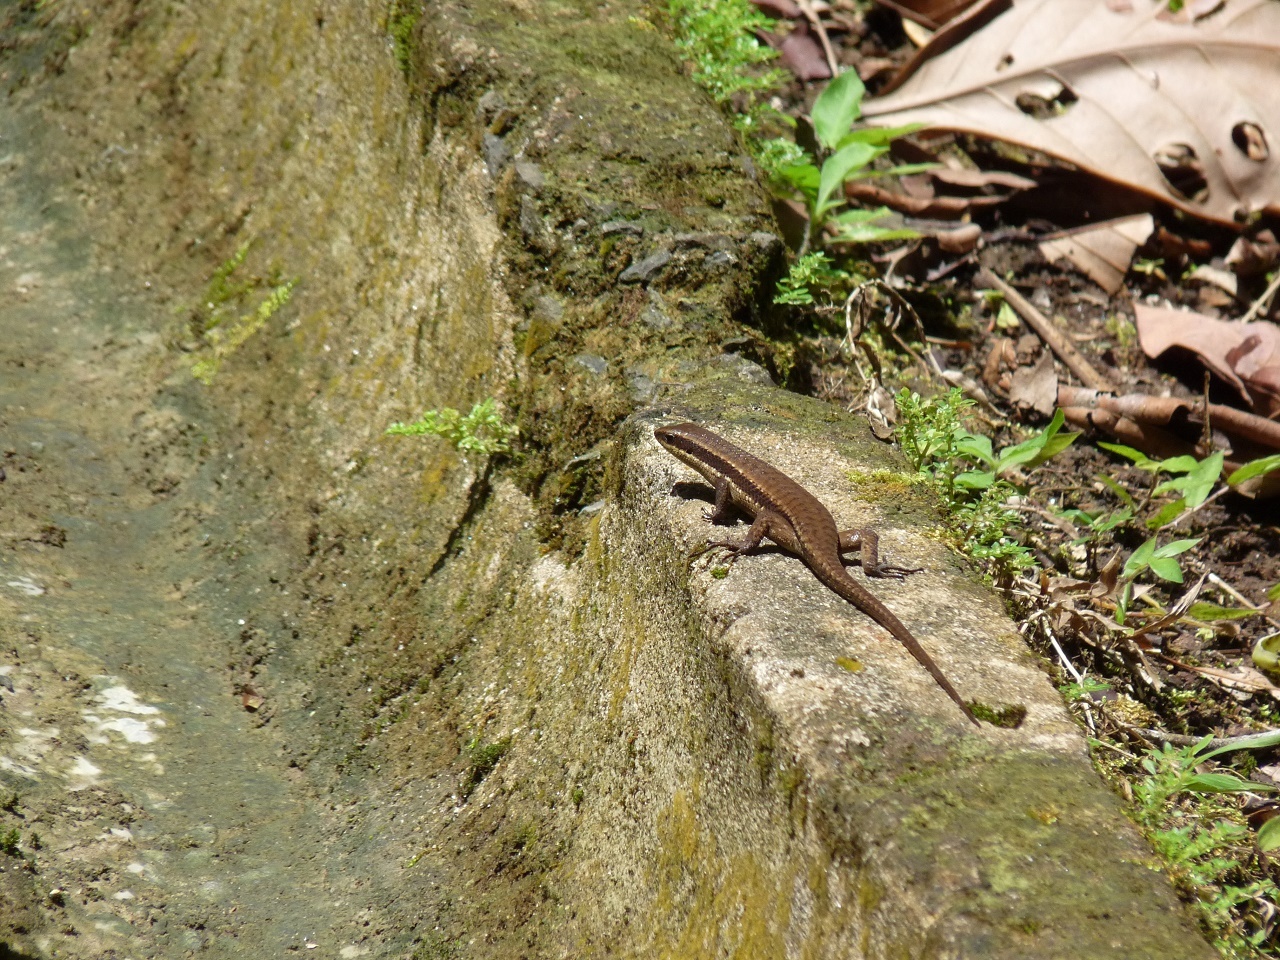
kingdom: Animalia
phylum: Chordata
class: Squamata
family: Scincidae
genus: Eutropis
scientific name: Eutropis rudis
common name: Rough mabuya
